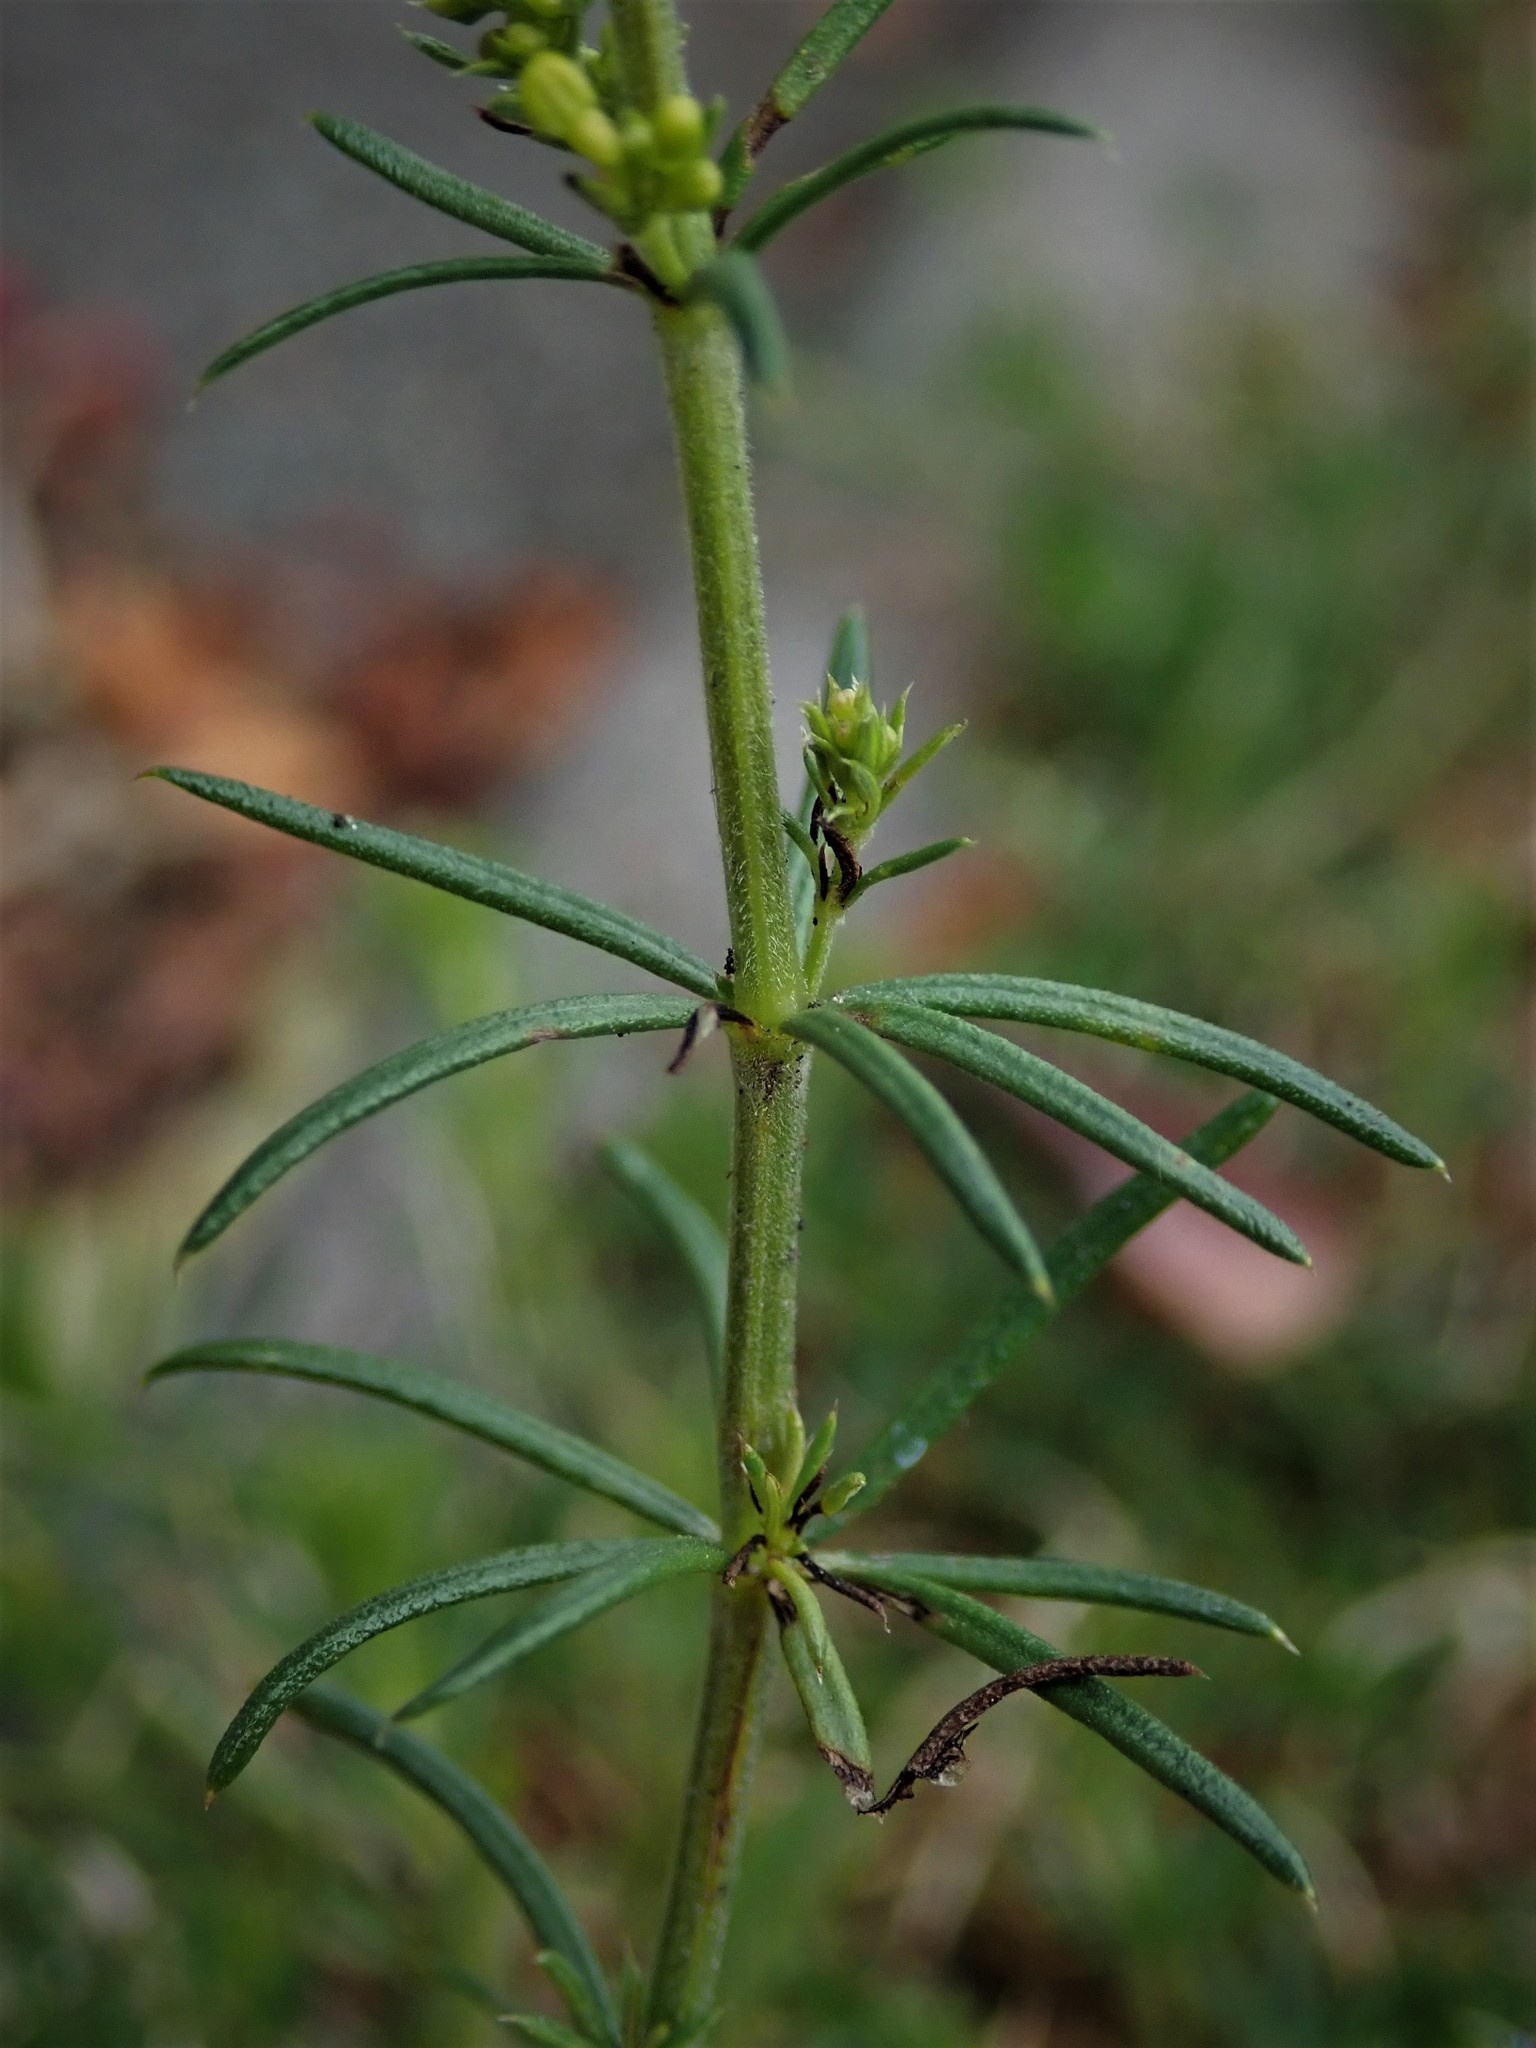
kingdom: Plantae
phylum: Tracheophyta
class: Magnoliopsida
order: Gentianales
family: Rubiaceae
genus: Galium
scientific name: Galium verum
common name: Lady's bedstraw
